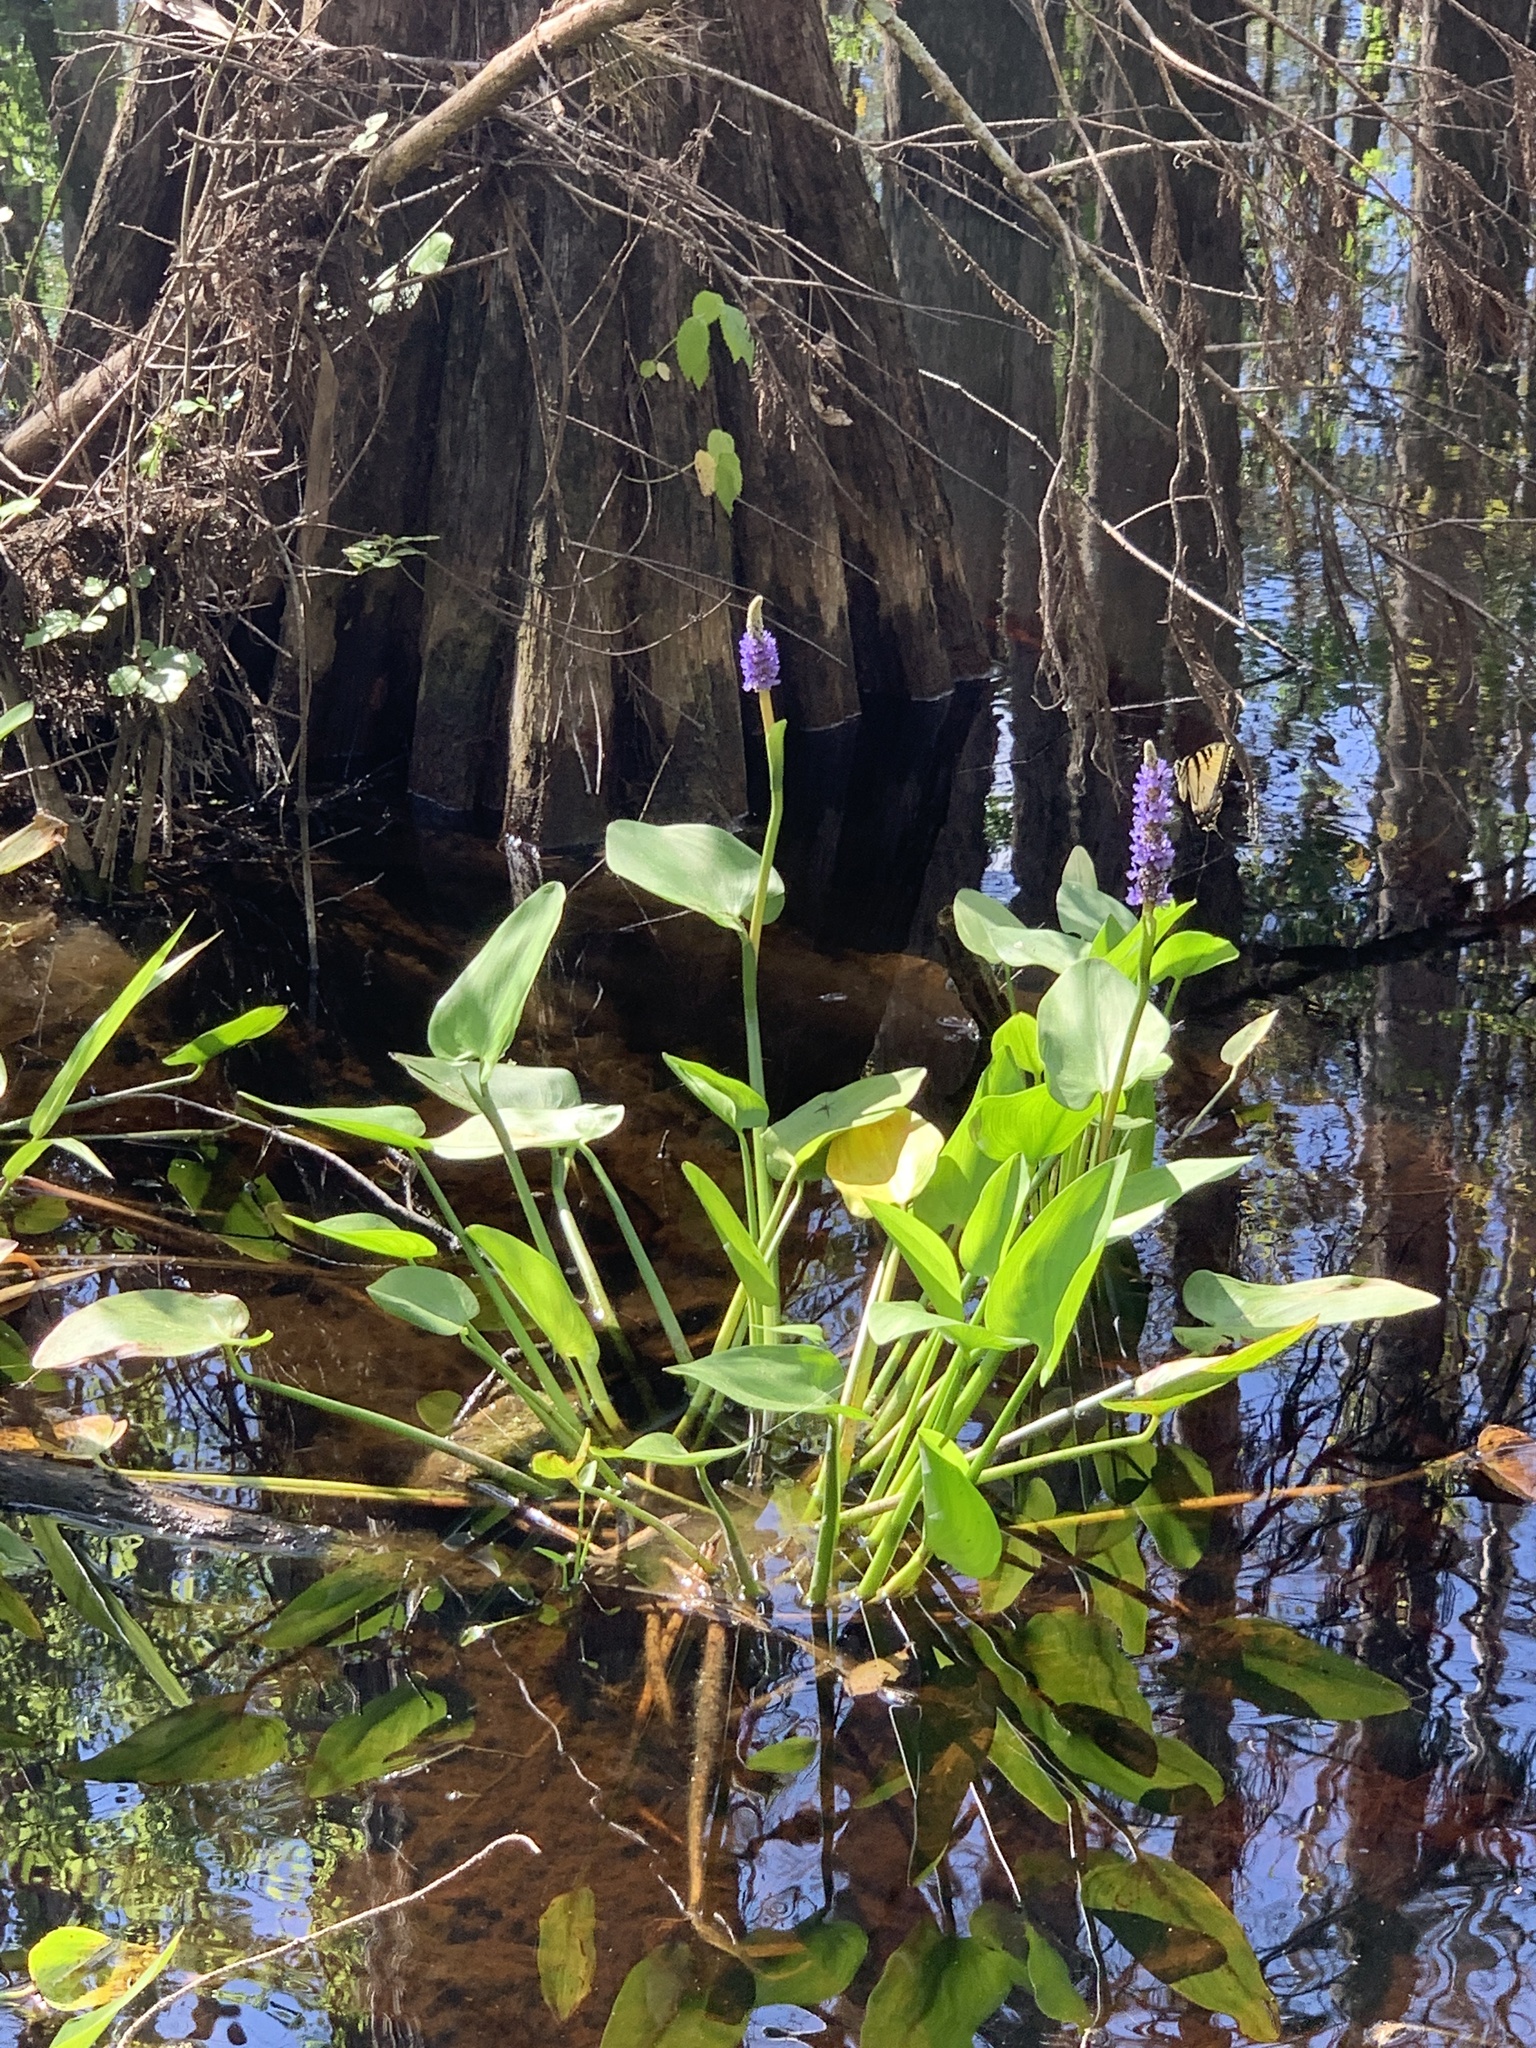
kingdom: Plantae
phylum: Tracheophyta
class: Liliopsida
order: Commelinales
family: Pontederiaceae
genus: Pontederia
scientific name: Pontederia cordata
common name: Pickerelweed
